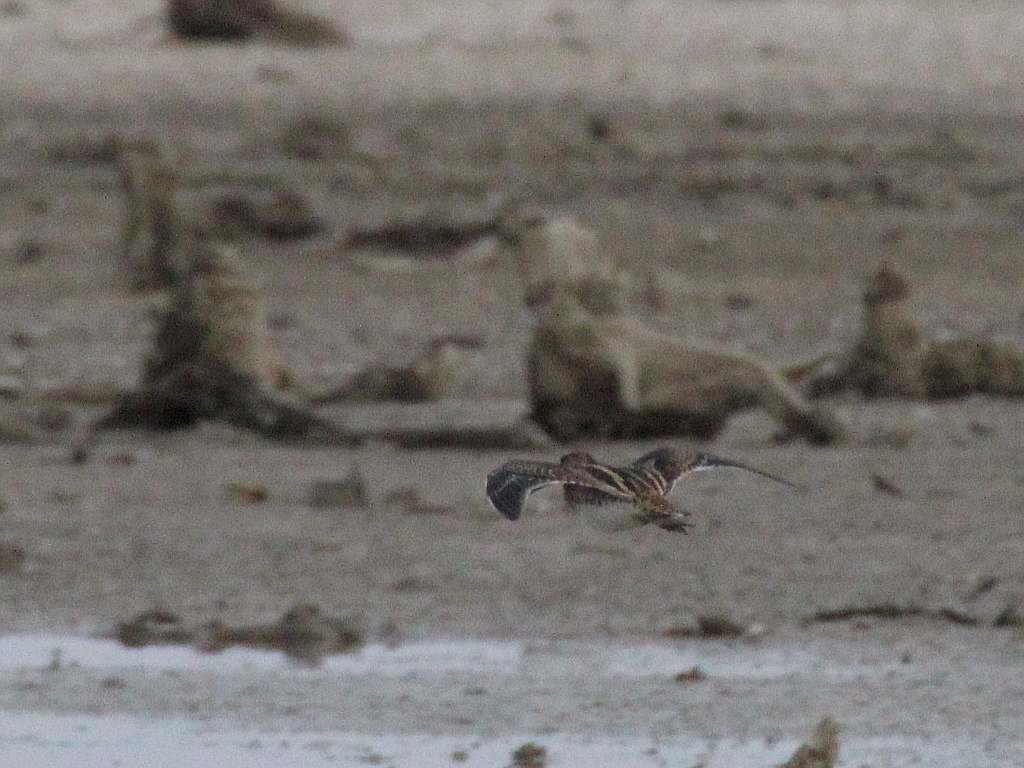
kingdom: Animalia
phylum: Chordata
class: Aves
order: Charadriiformes
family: Scolopacidae
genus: Gallinago
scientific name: Gallinago gallinago
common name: Common snipe
